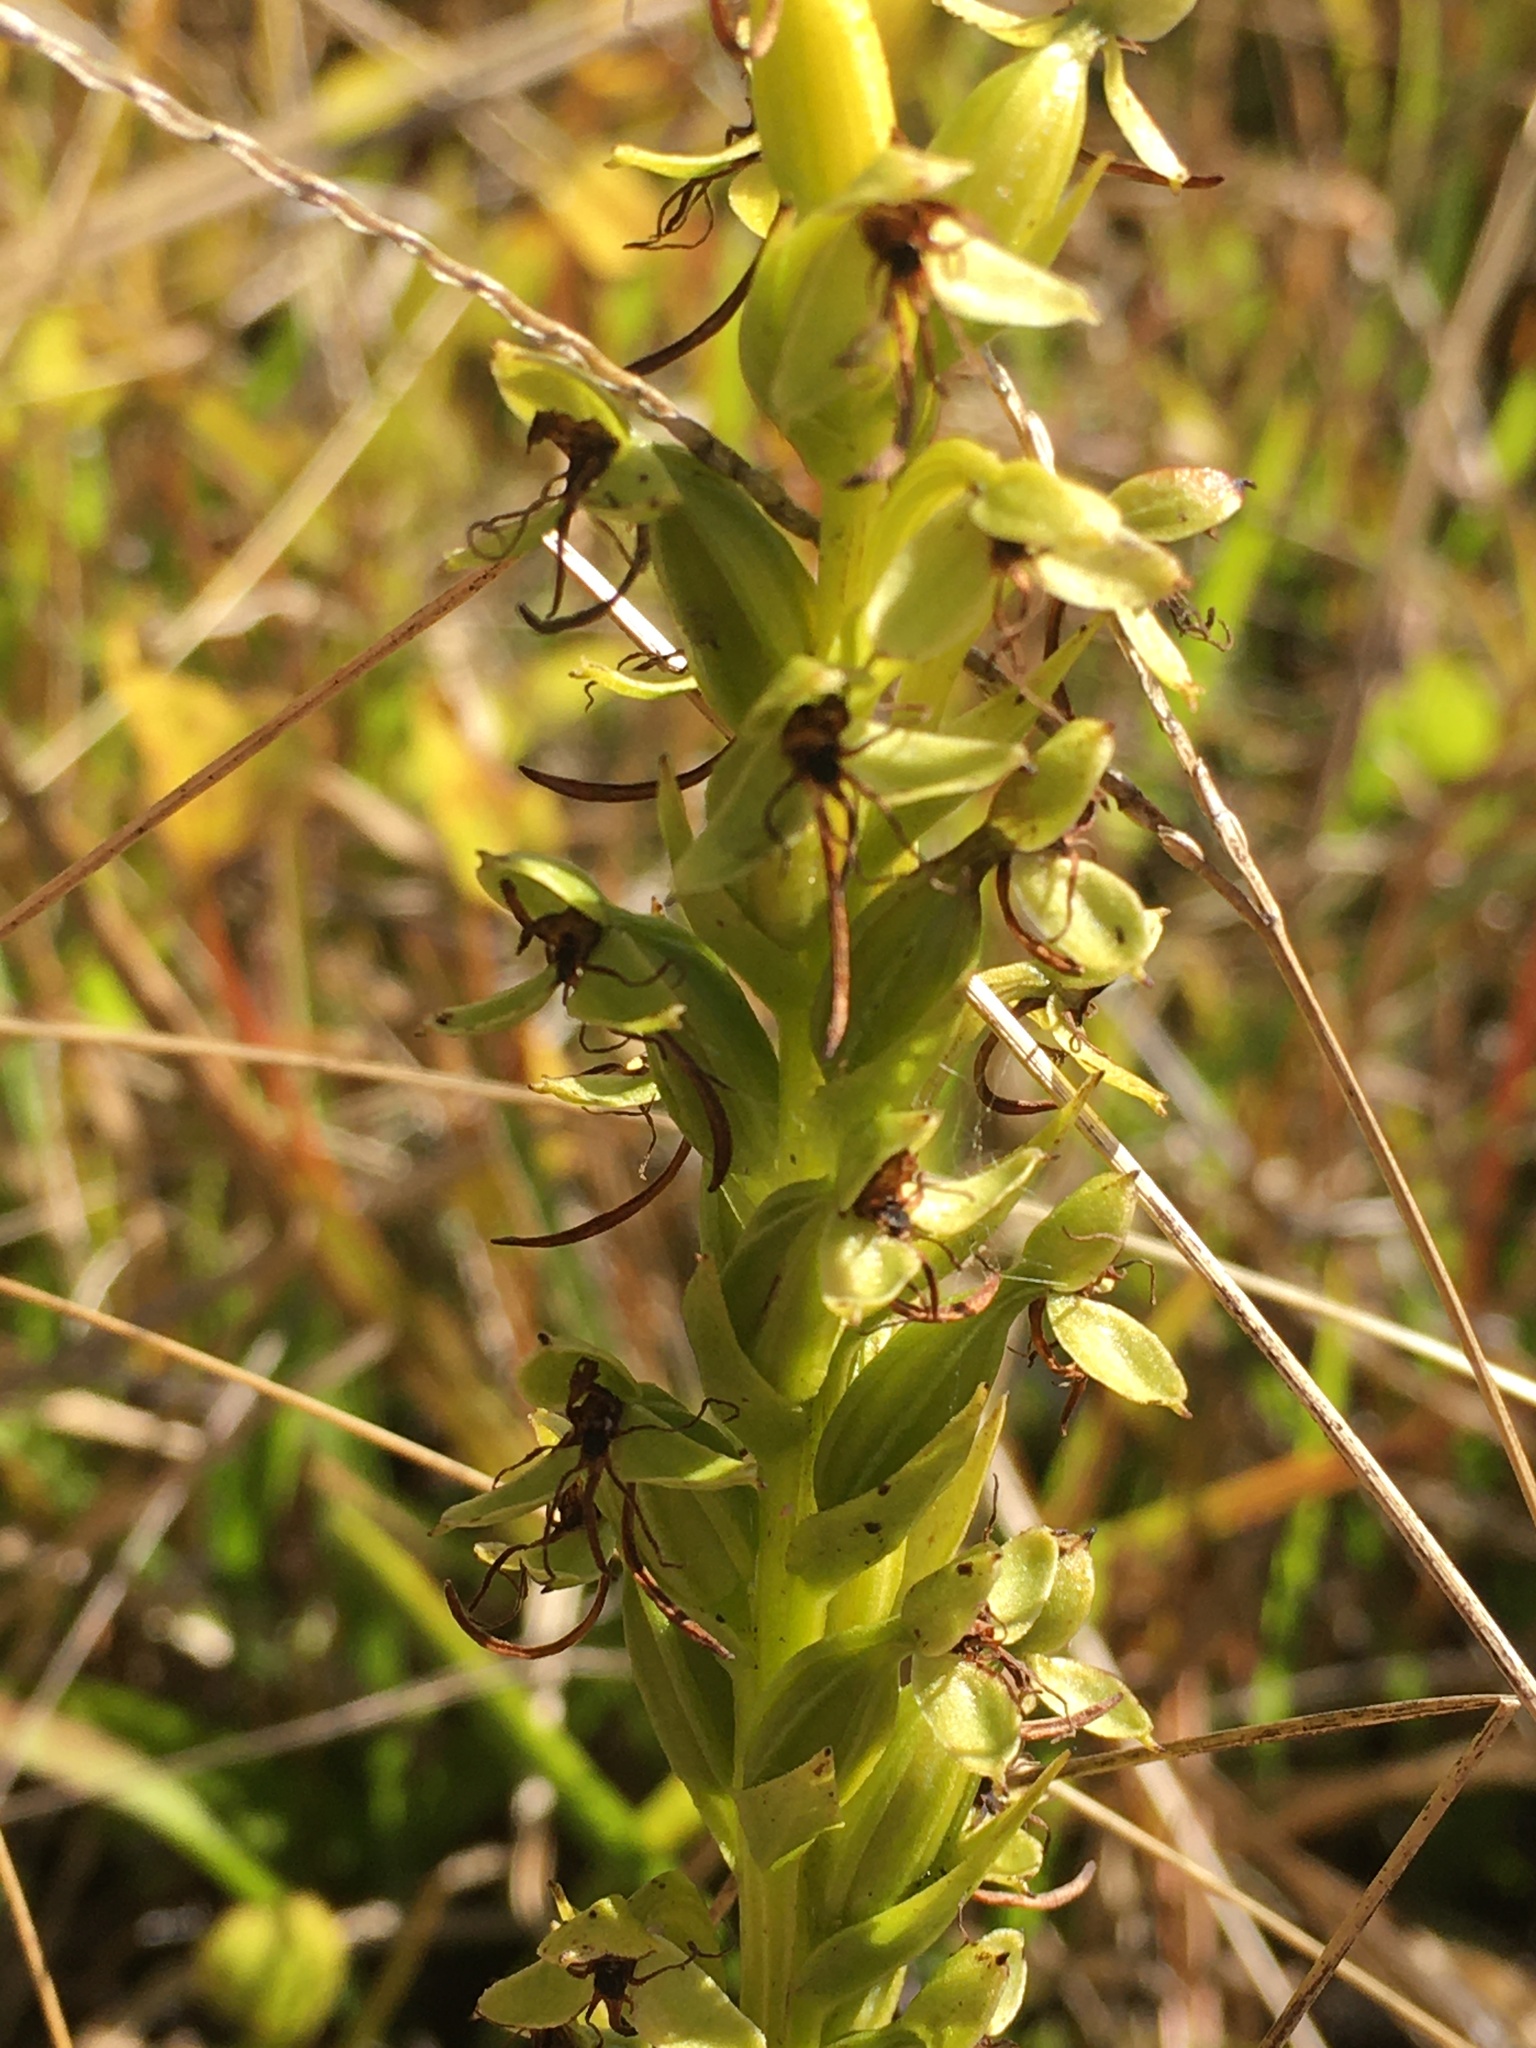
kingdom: Plantae
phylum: Tracheophyta
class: Liliopsida
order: Asparagales
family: Orchidaceae
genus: Habenaria
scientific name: Habenaria repens
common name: Water orchid
